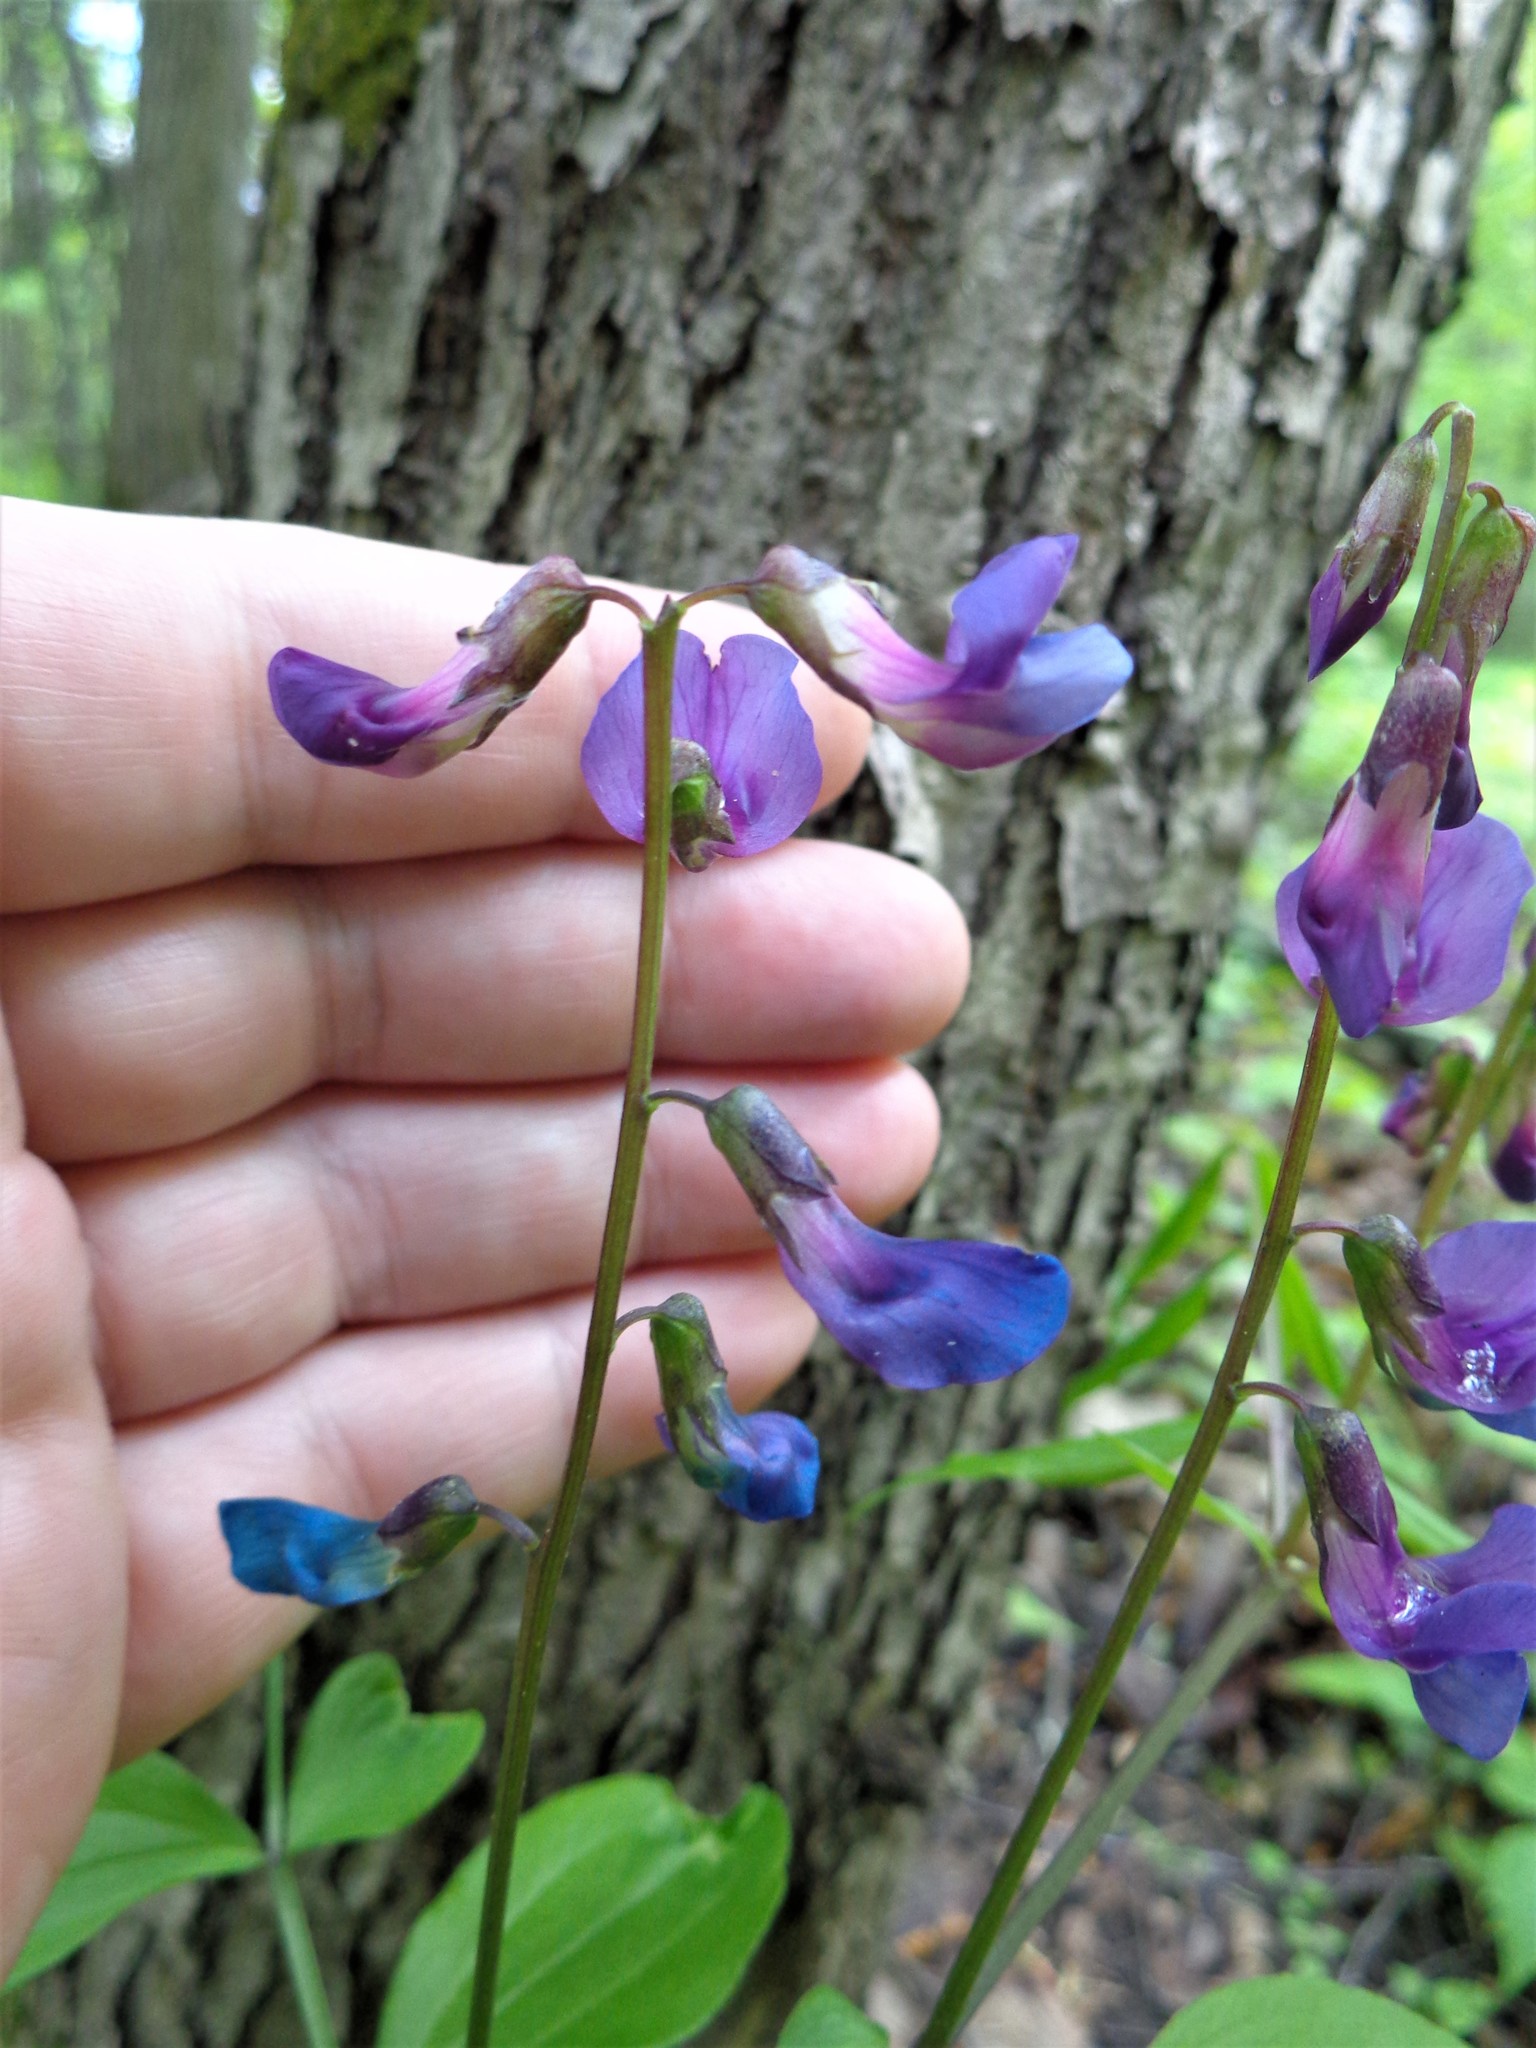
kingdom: Plantae
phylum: Tracheophyta
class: Magnoliopsida
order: Fabales
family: Fabaceae
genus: Lathyrus
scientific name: Lathyrus vernus
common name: Spring pea
